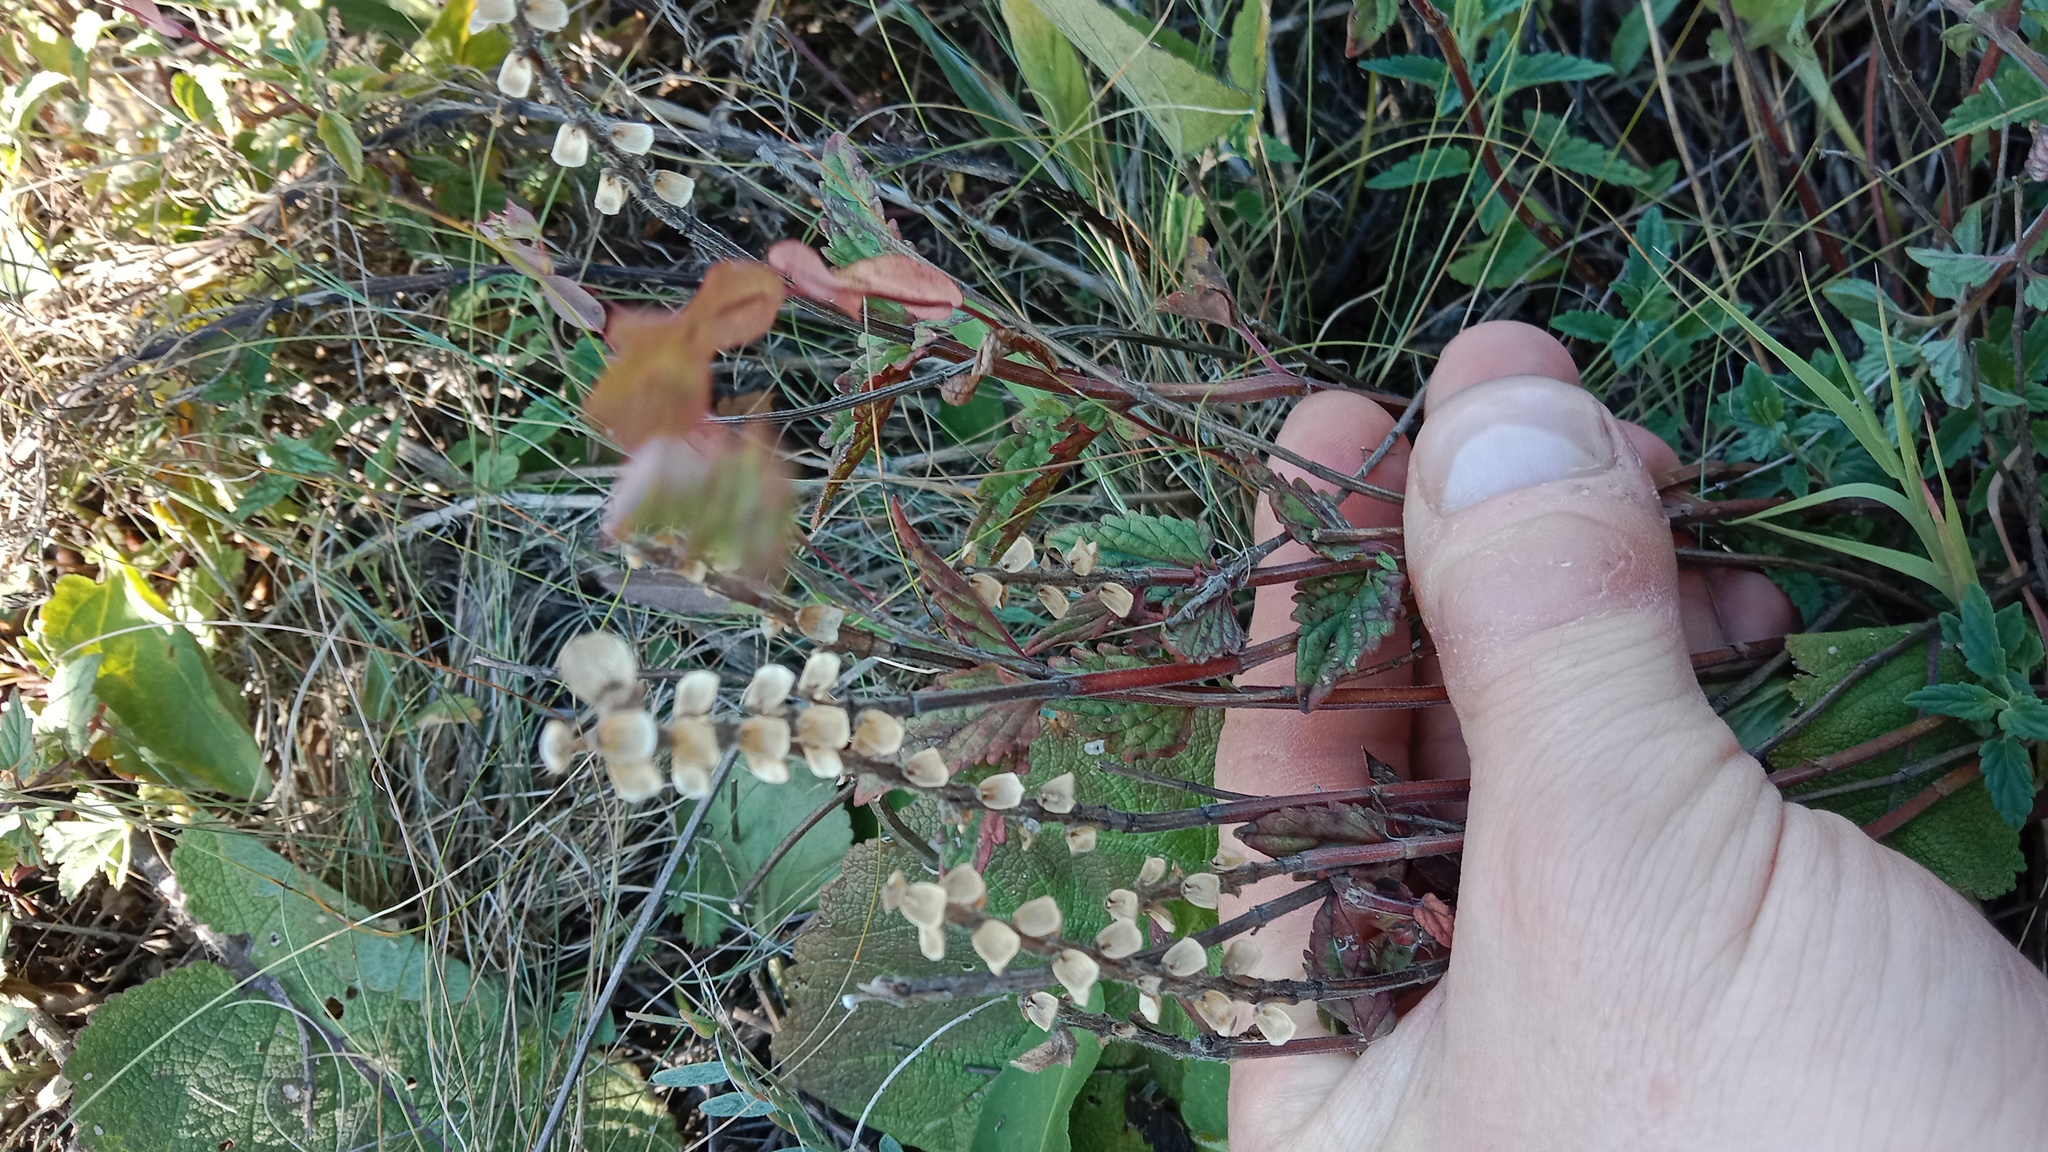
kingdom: Plantae
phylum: Tracheophyta
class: Magnoliopsida
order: Lamiales
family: Lamiaceae
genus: Scutellaria
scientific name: Scutellaria supina
